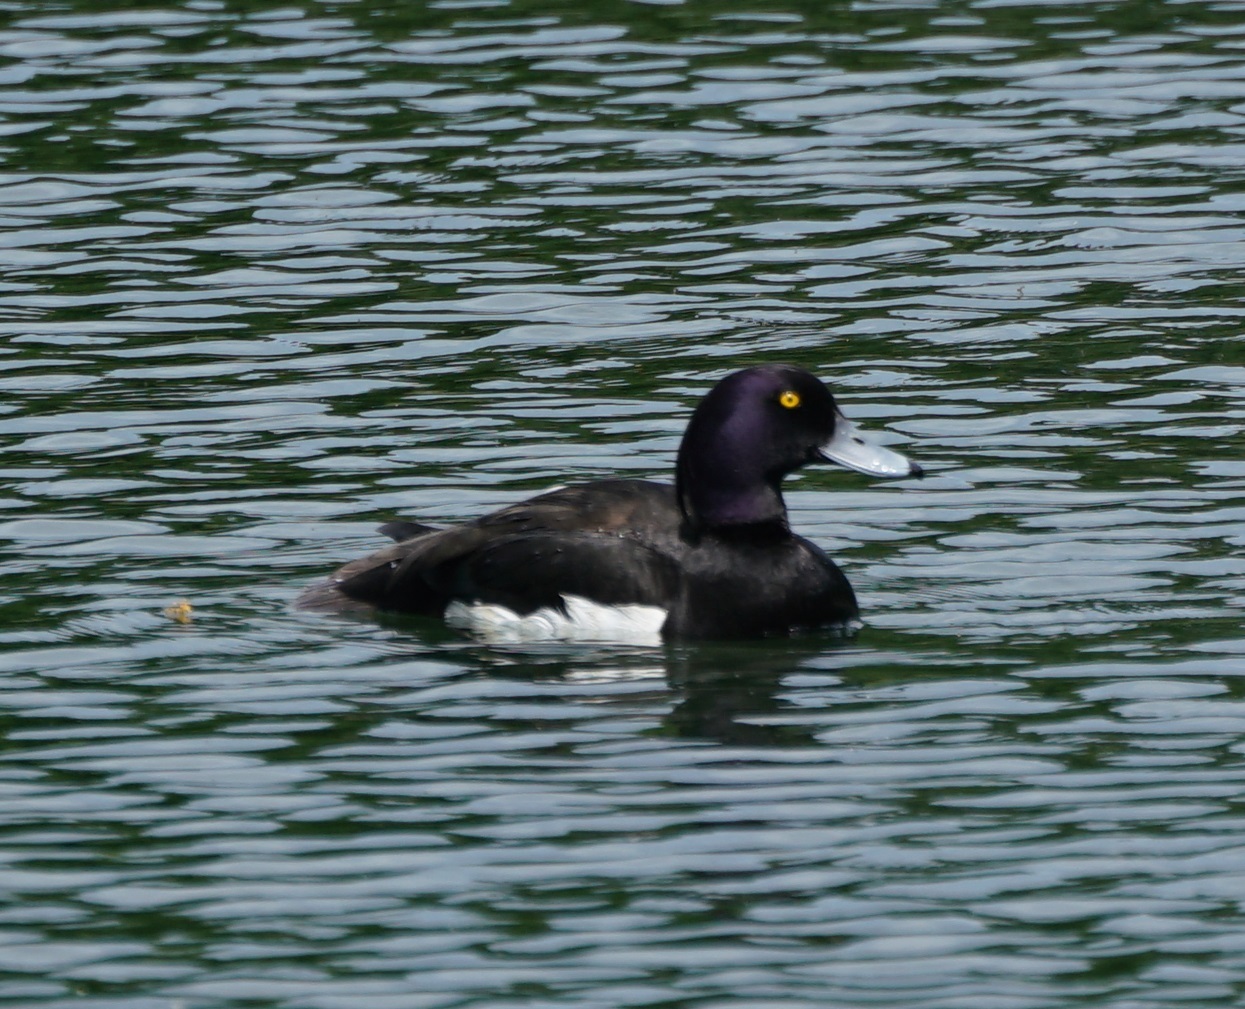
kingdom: Animalia
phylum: Chordata
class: Aves
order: Anseriformes
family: Anatidae
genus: Aythya
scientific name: Aythya fuligula
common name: Tufted duck
